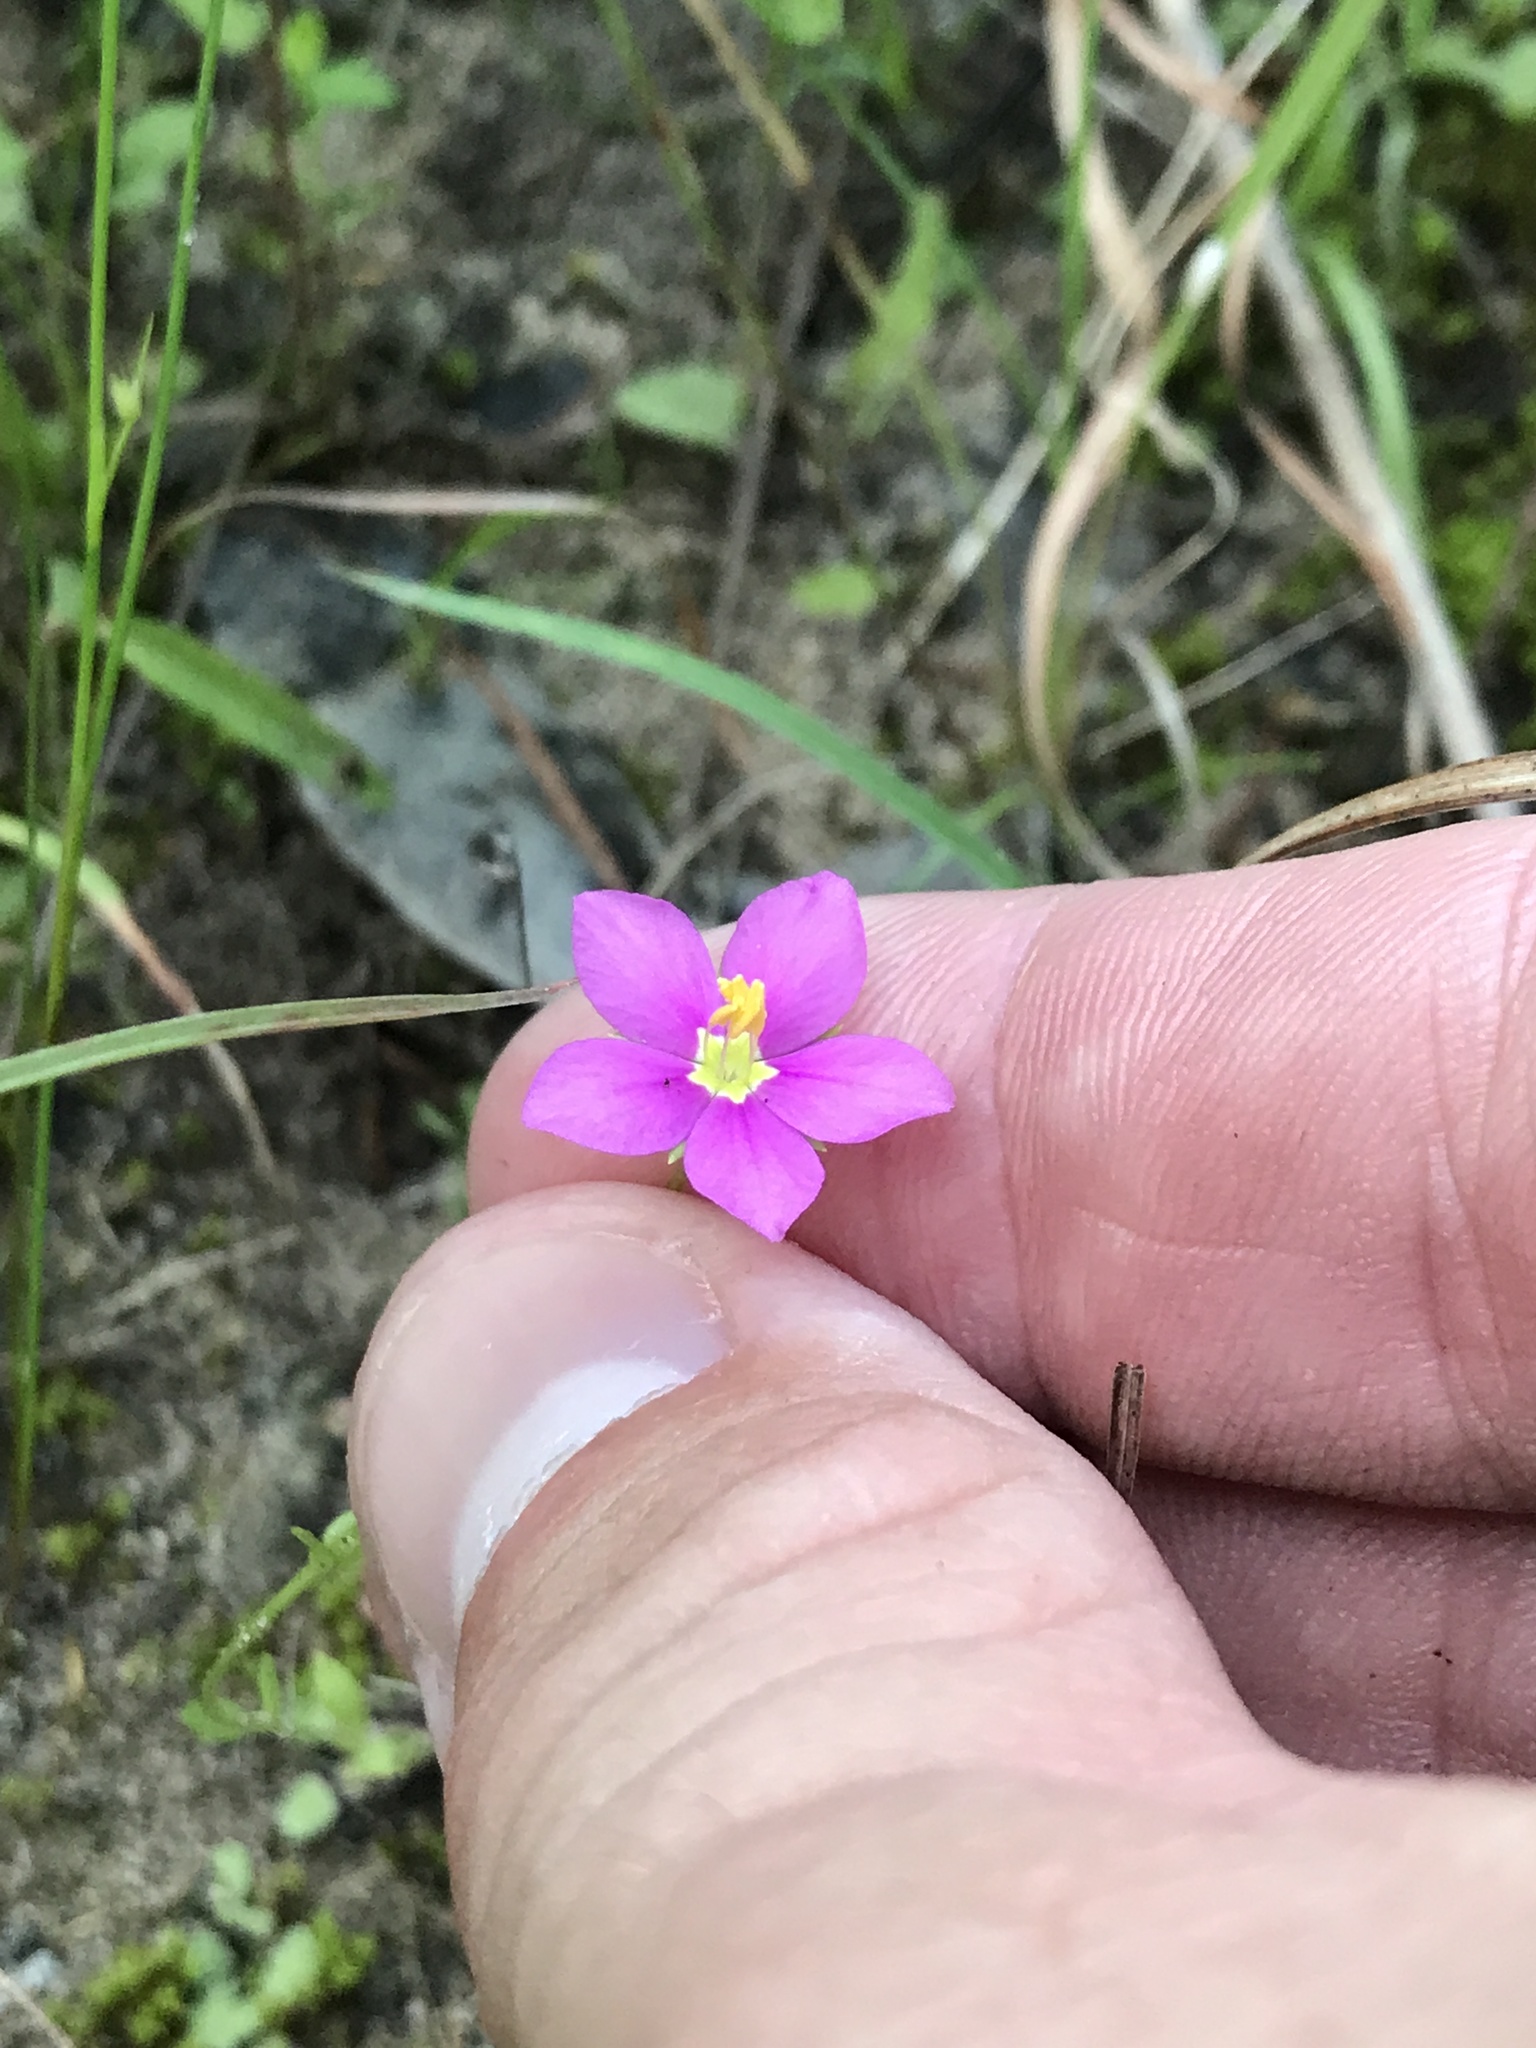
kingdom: Plantae
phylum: Tracheophyta
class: Magnoliopsida
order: Gentianales
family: Gentianaceae
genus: Sabatia
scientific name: Sabatia campestris
